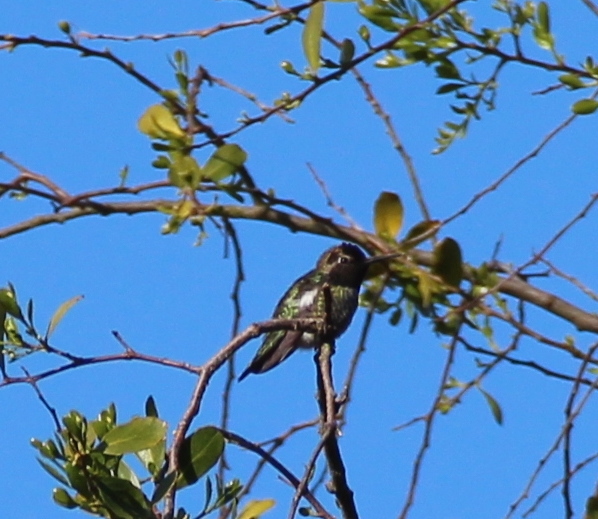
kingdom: Animalia
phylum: Chordata
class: Aves
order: Apodiformes
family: Trochilidae
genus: Calypte
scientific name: Calypte anna
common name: Anna's hummingbird
